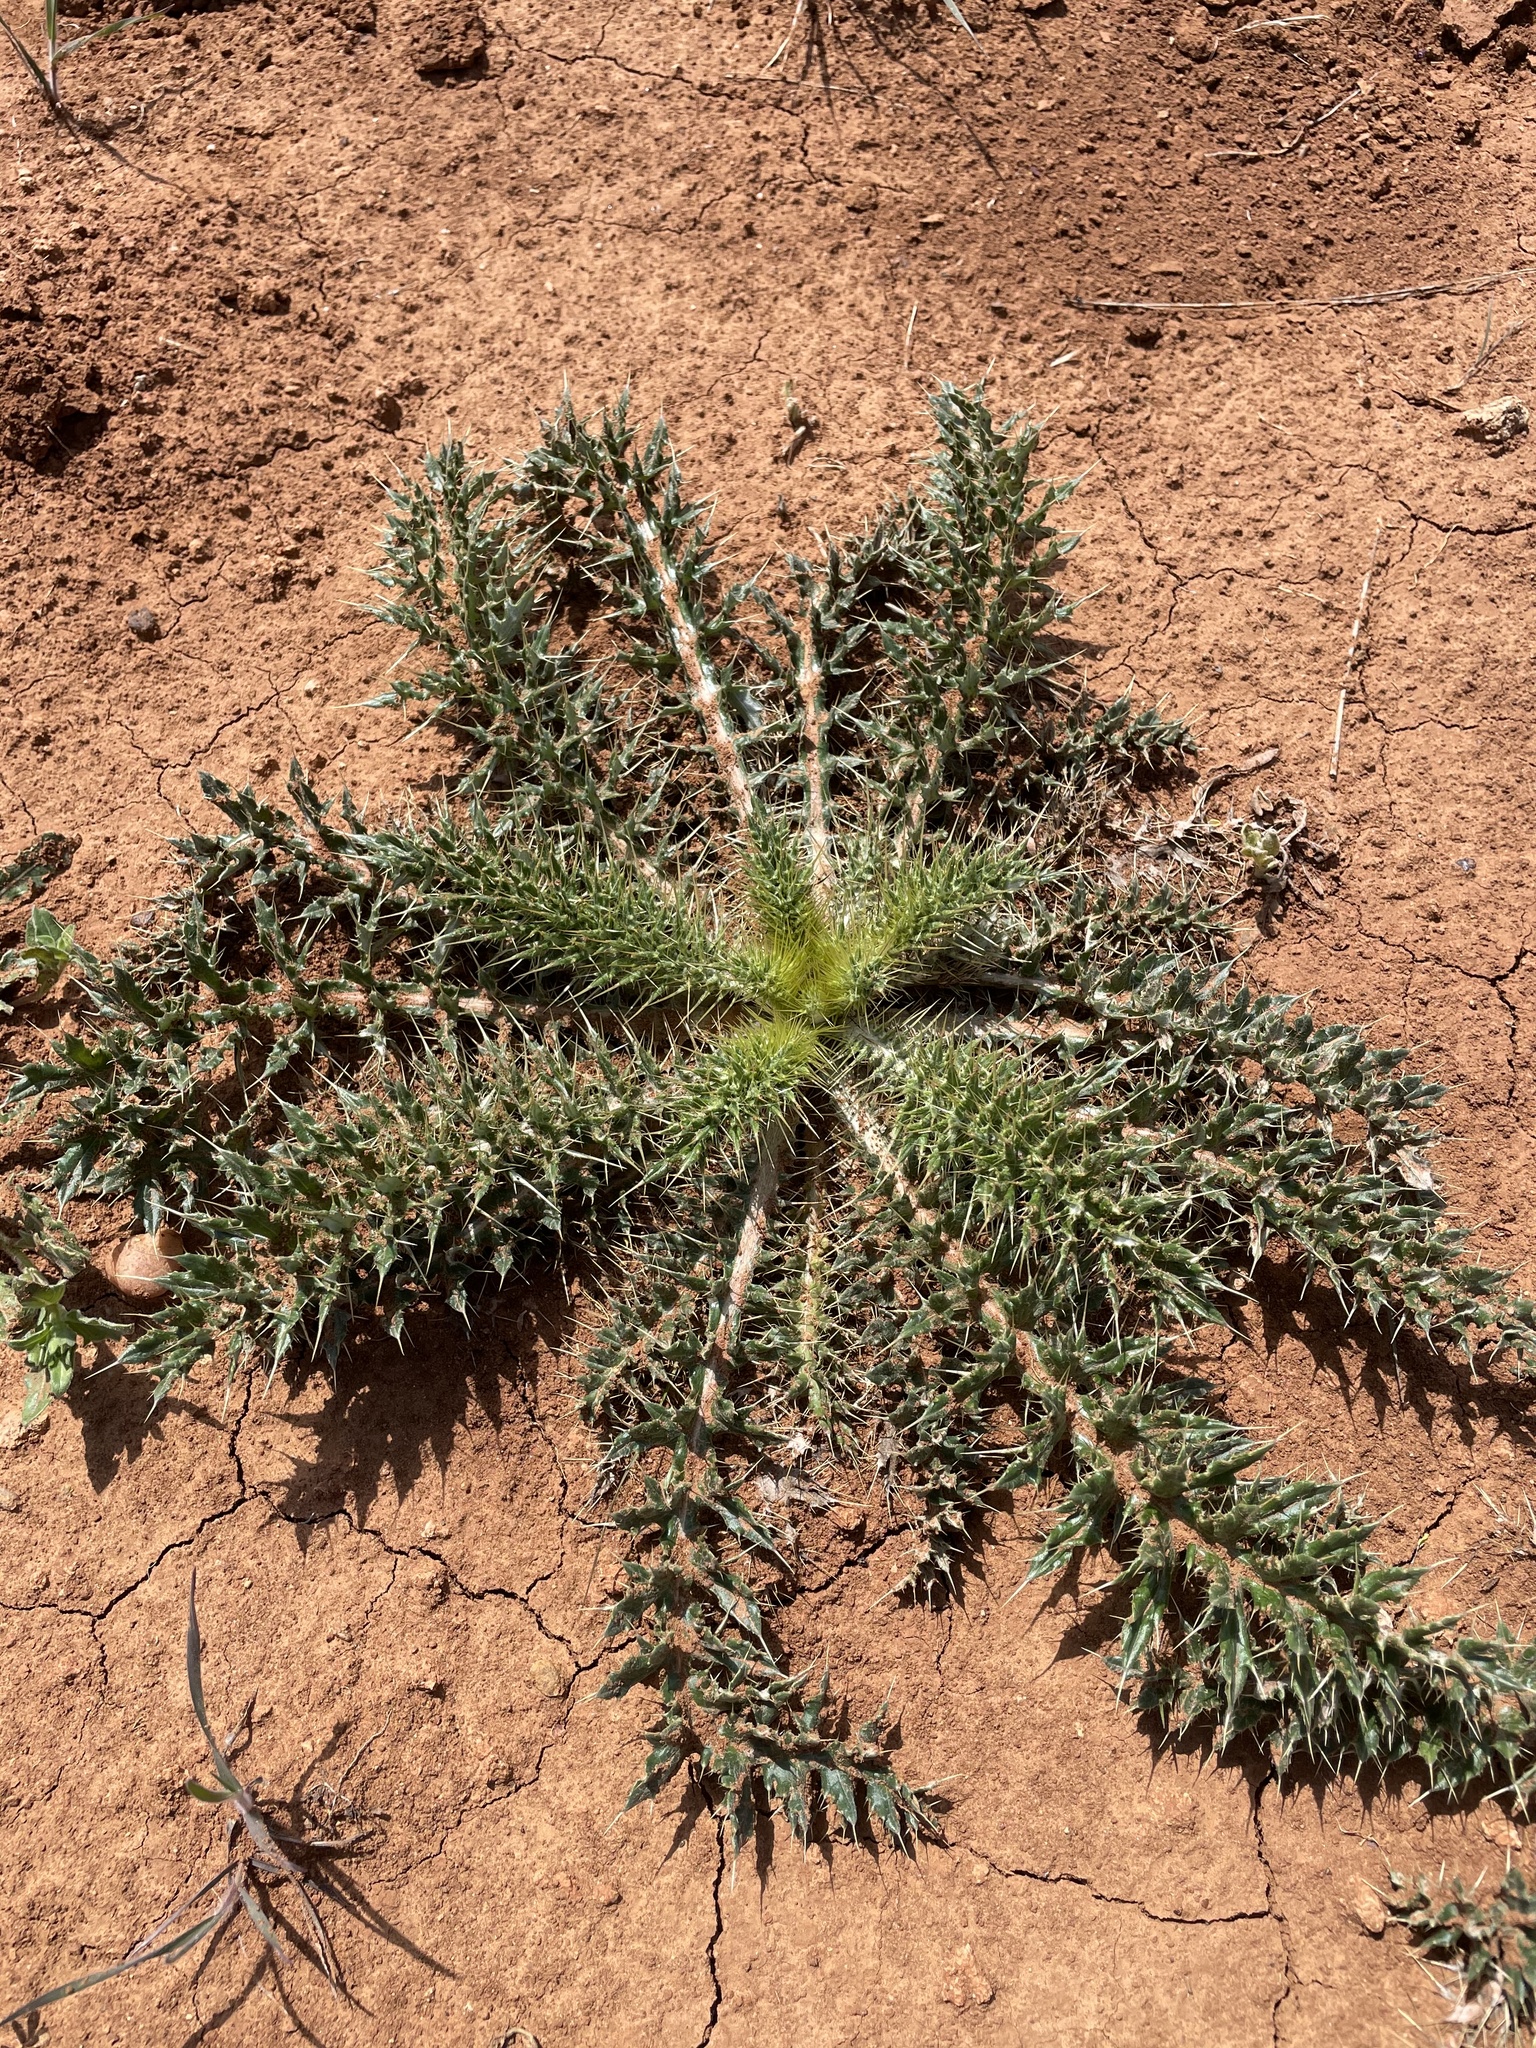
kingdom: Plantae
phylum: Tracheophyta
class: Magnoliopsida
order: Asterales
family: Asteraceae
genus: Cirsium
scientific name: Cirsium ochrocentrum
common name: Yellow-spine thistle
